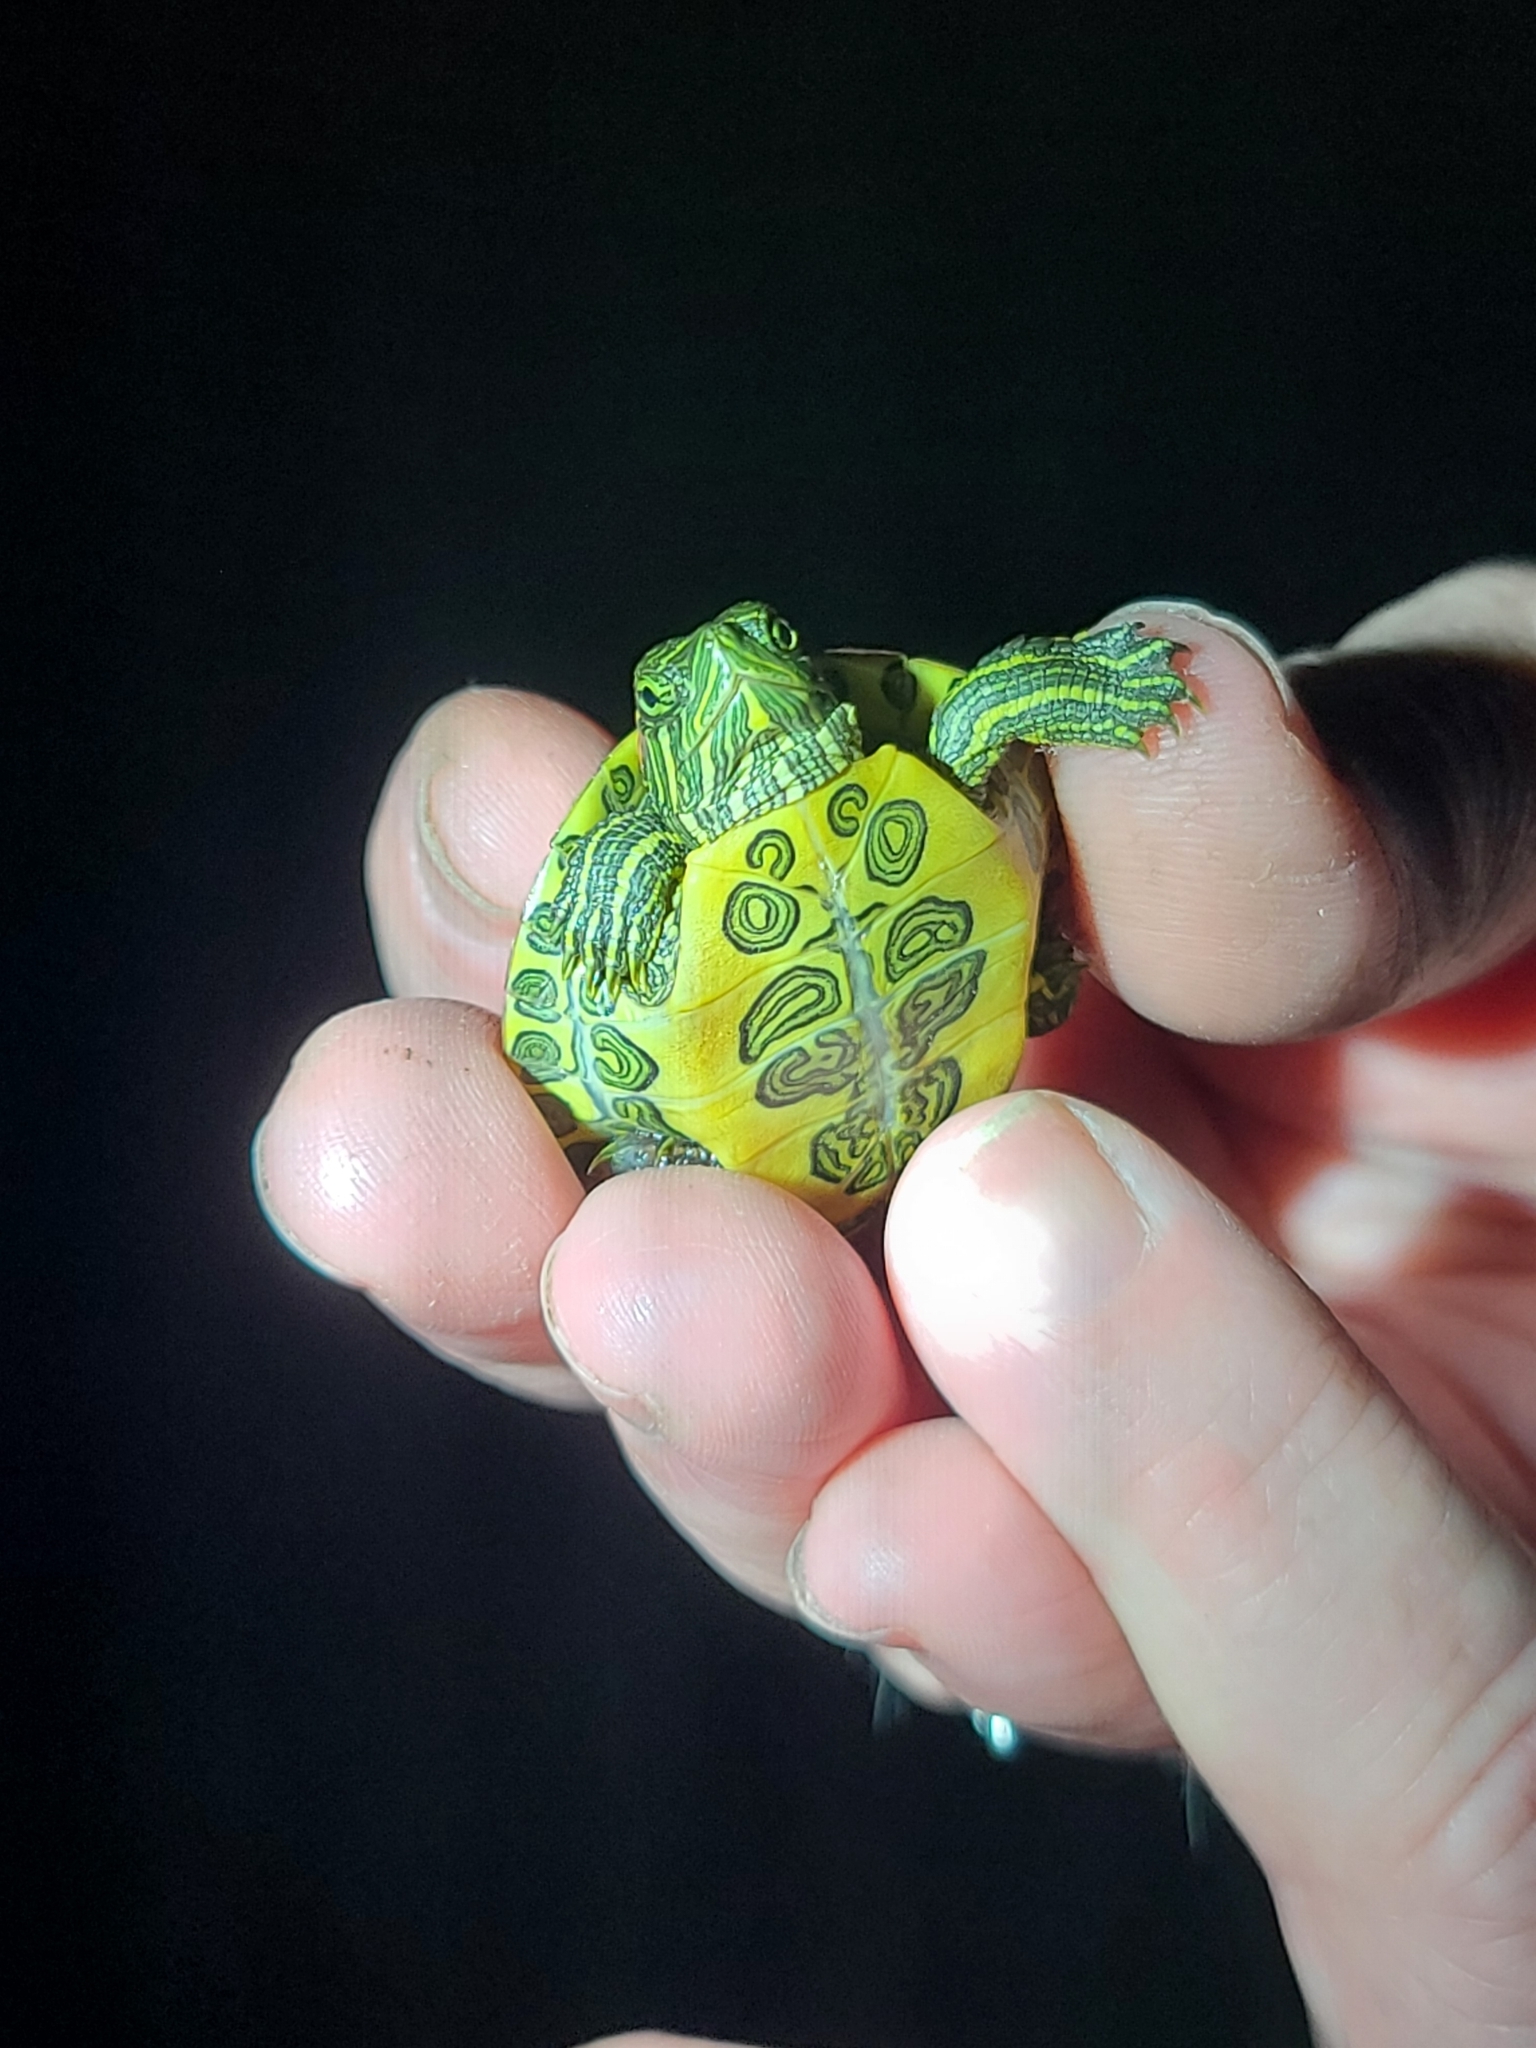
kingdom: Animalia
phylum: Chordata
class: Testudines
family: Emydidae
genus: Trachemys
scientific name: Trachemys scripta
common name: Slider
